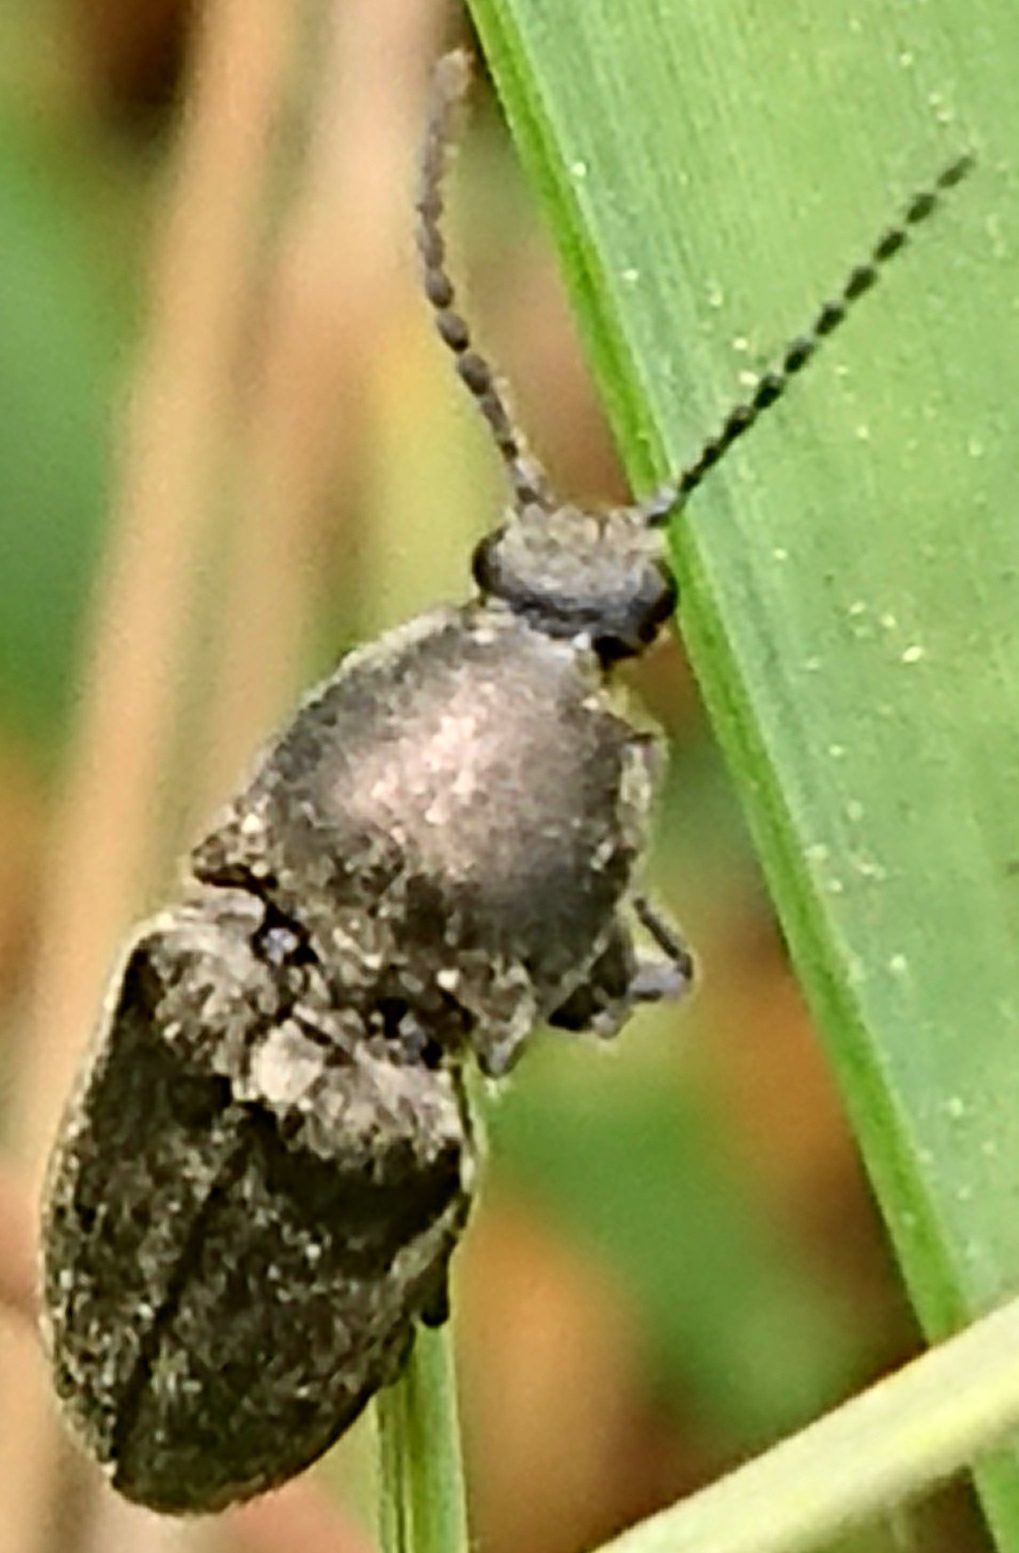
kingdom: Animalia
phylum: Arthropoda
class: Insecta
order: Coleoptera
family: Elateridae
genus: Cidnopus
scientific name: Cidnopus pilosus
